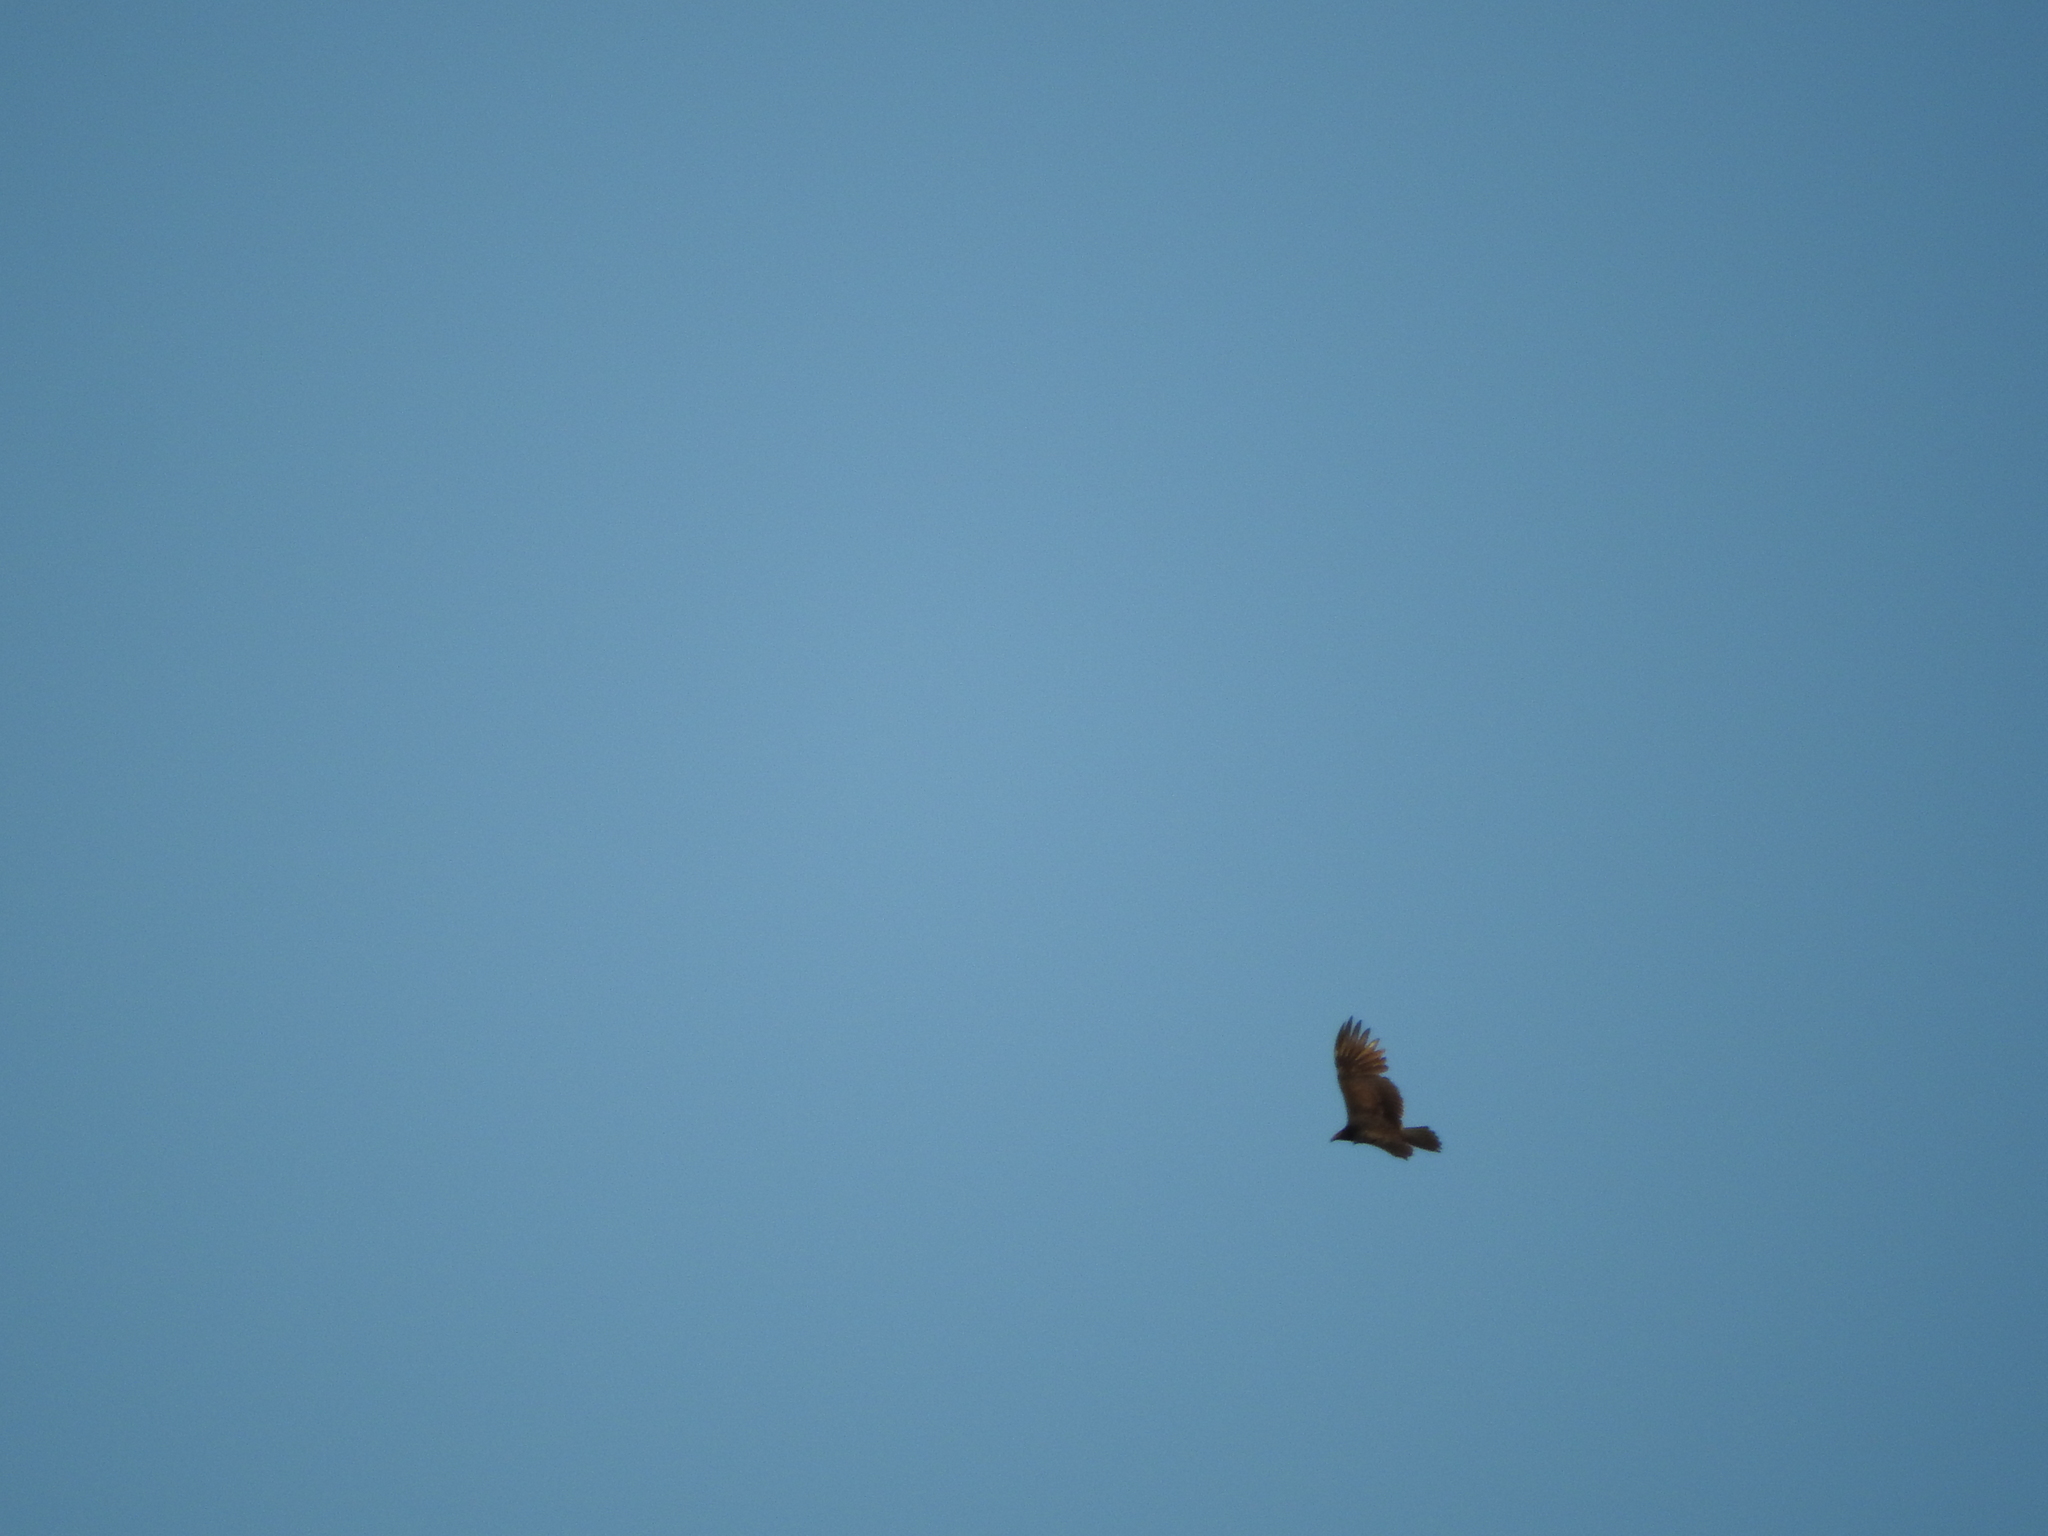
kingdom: Animalia
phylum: Chordata
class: Aves
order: Accipitriformes
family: Cathartidae
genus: Cathartes
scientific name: Cathartes aura
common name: Turkey vulture
